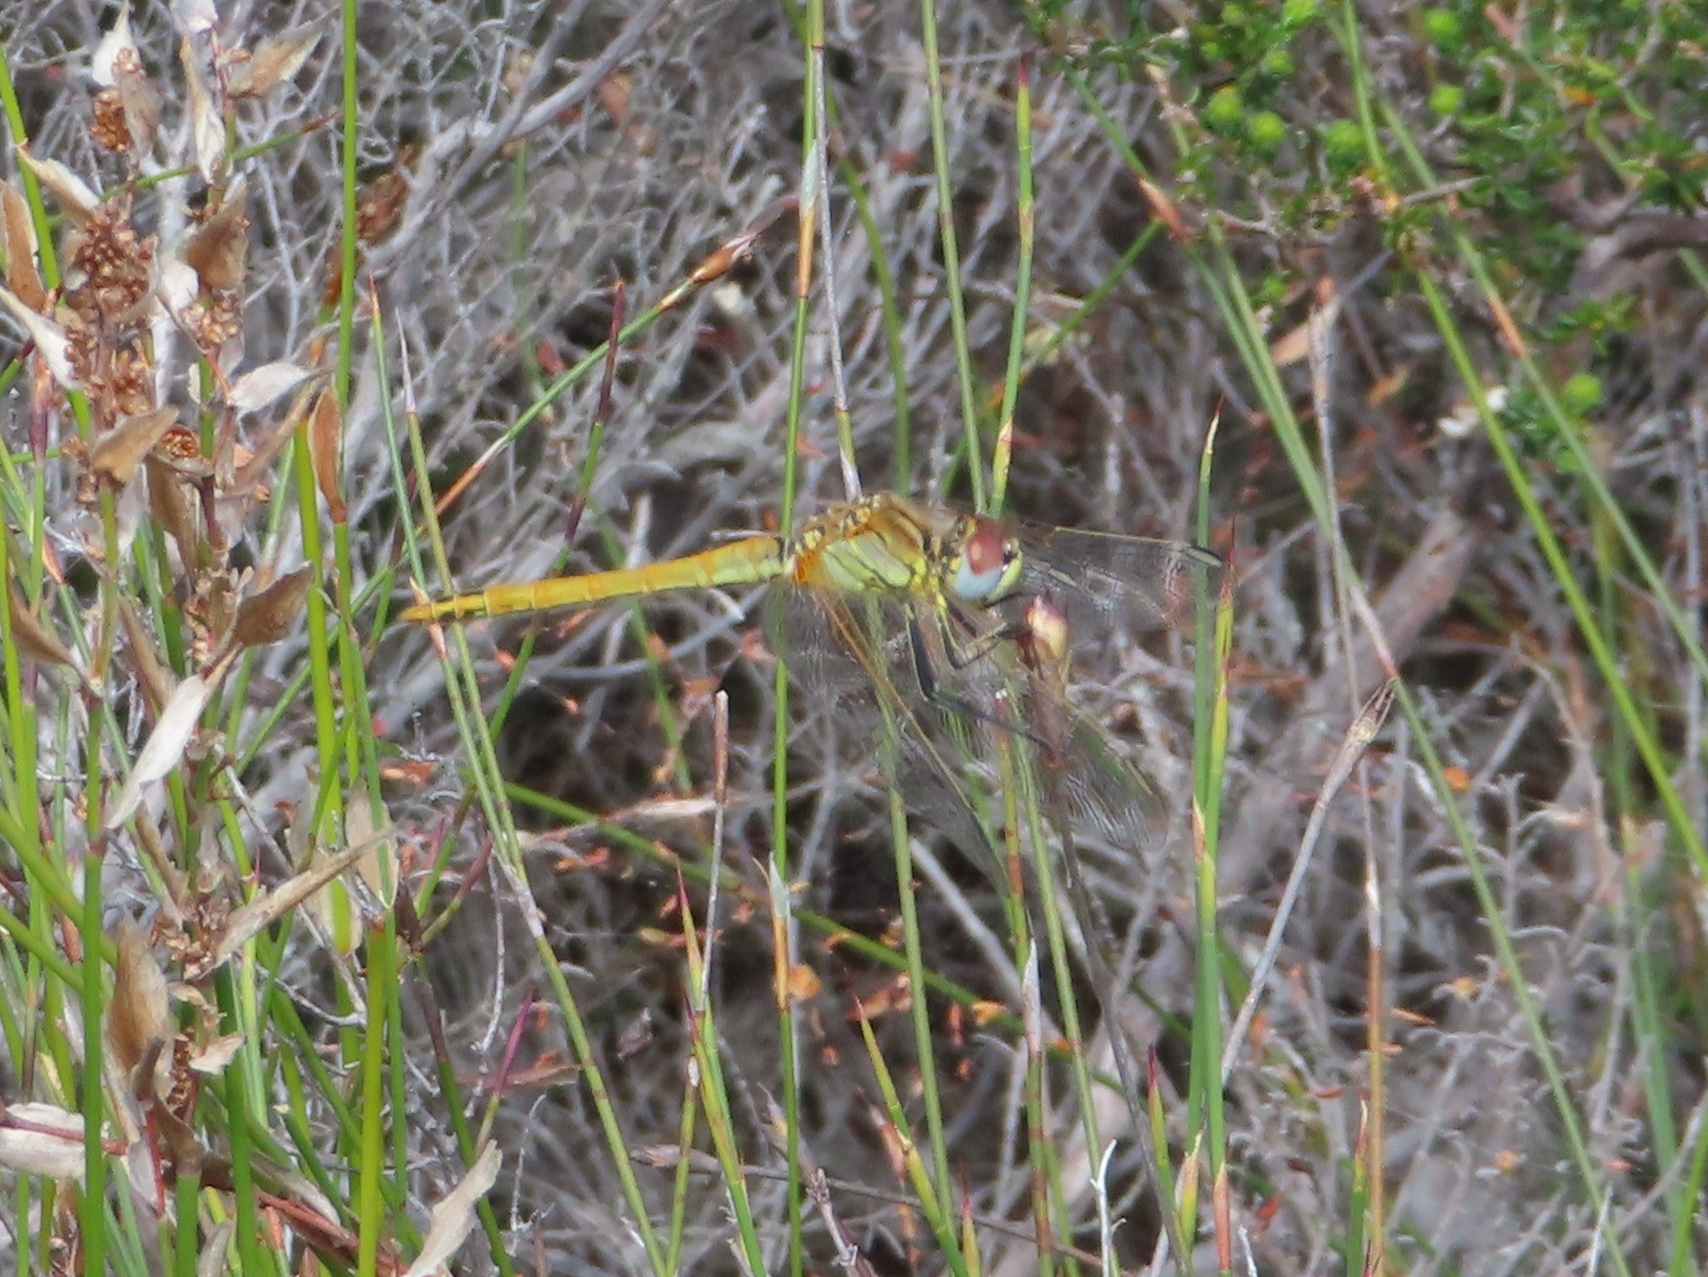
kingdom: Animalia
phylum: Arthropoda
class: Insecta
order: Odonata
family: Libellulidae
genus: Sympetrum
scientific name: Sympetrum fonscolombii
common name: Red-veined darter
